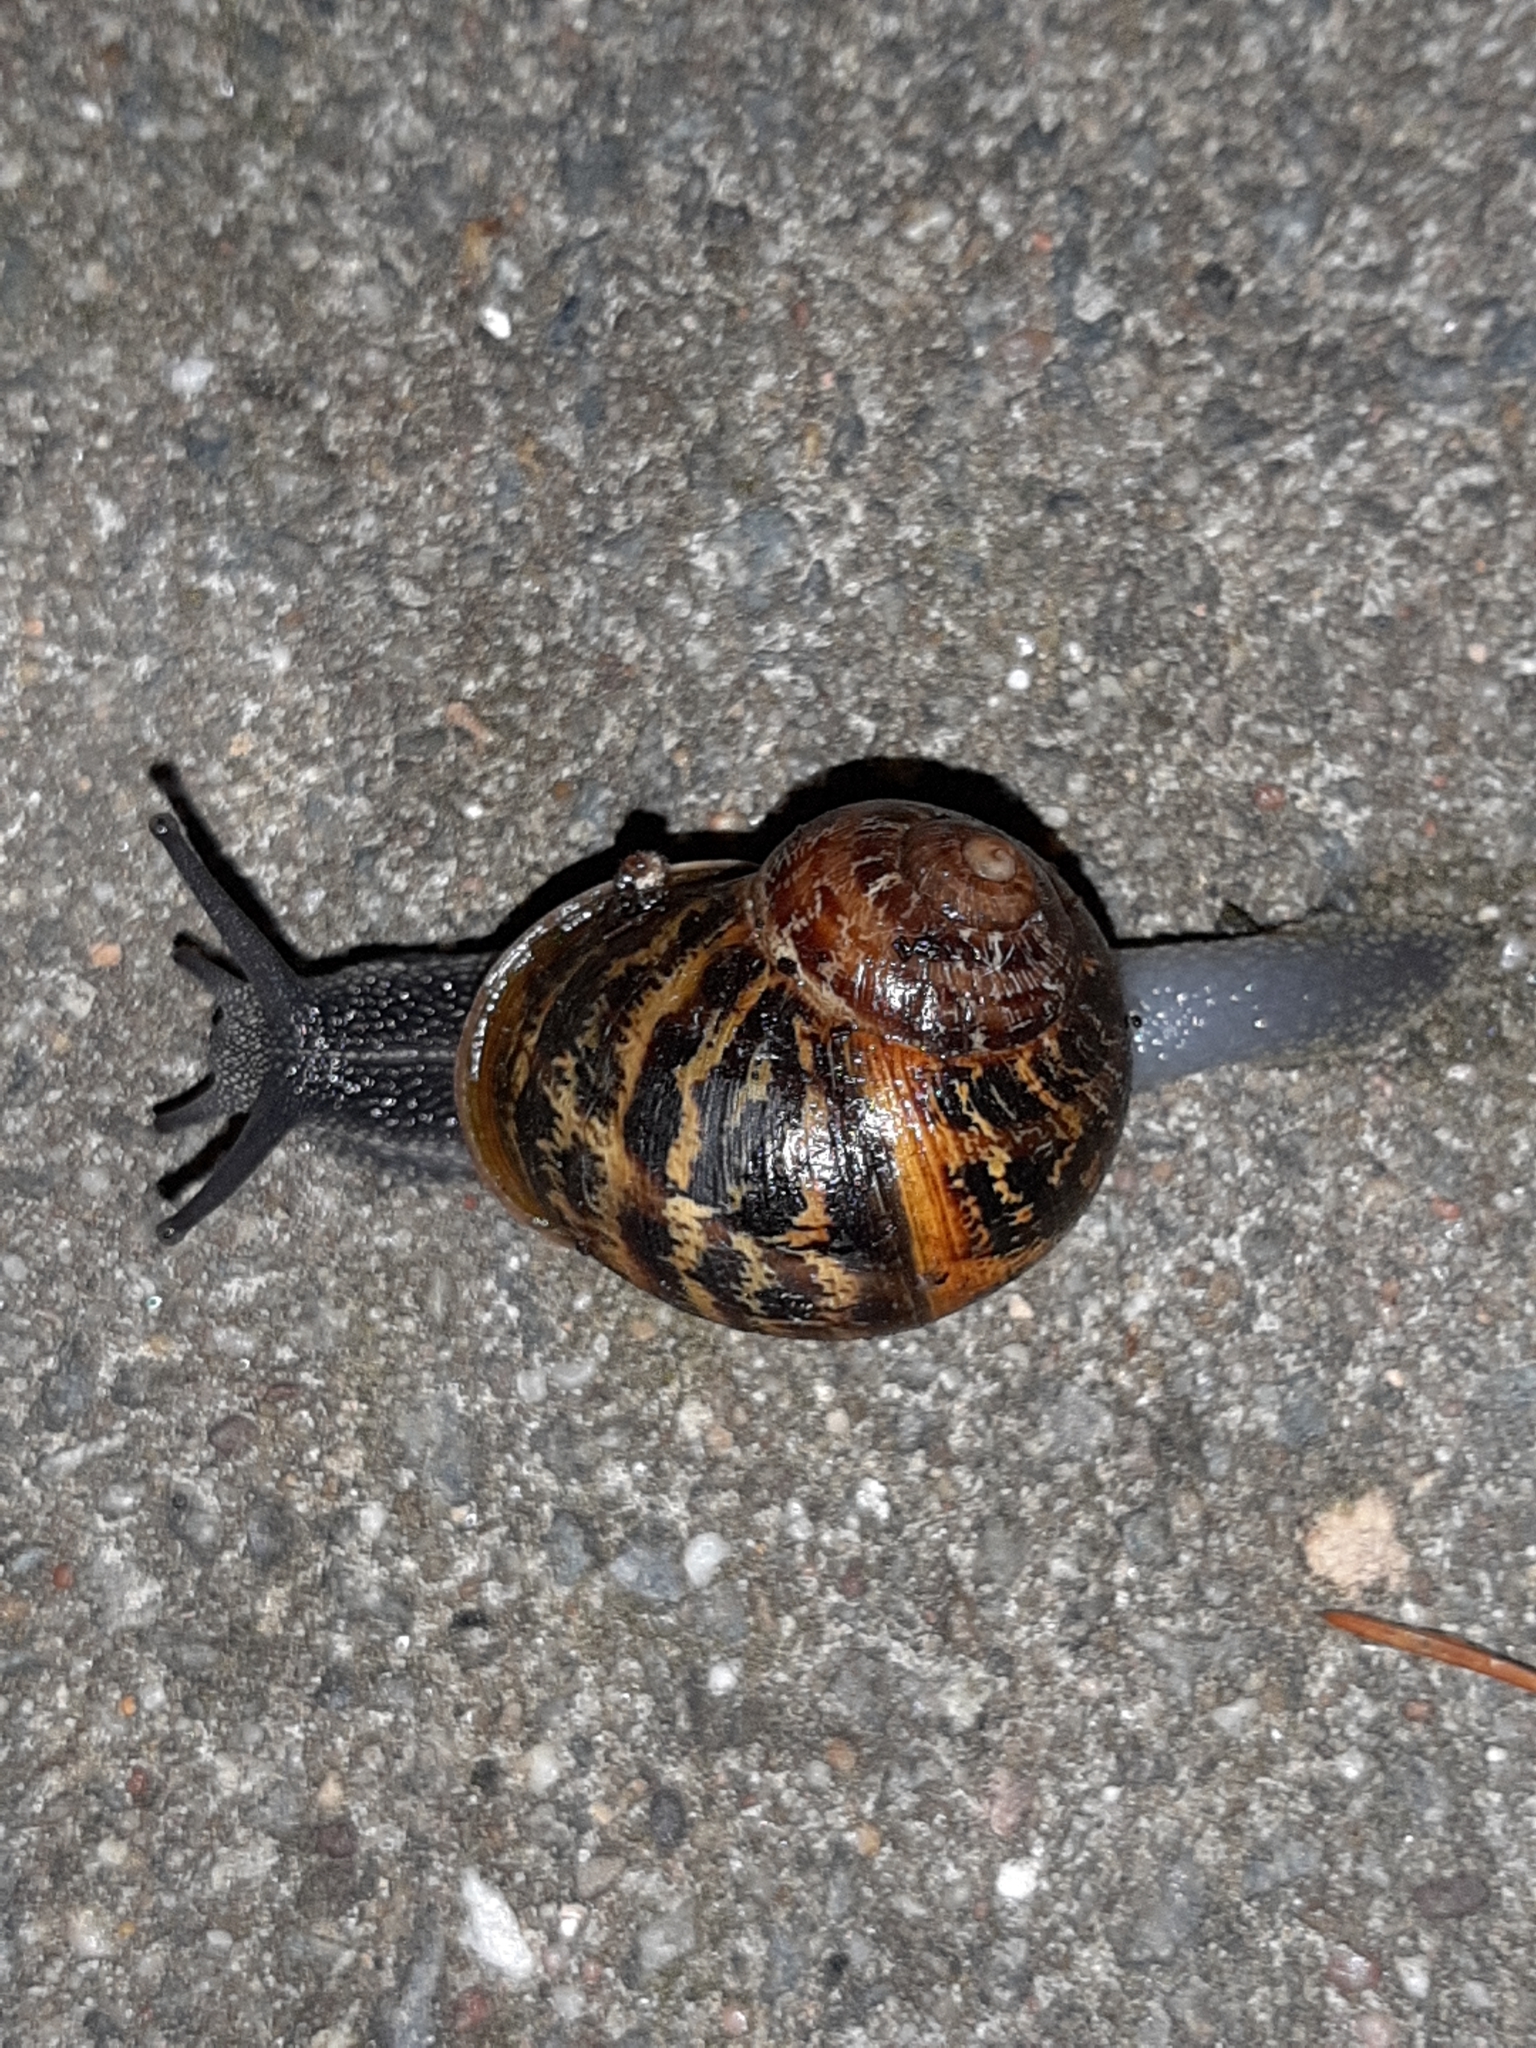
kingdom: Animalia
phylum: Mollusca
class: Gastropoda
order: Stylommatophora
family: Helicidae
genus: Cornu
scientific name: Cornu aspersum
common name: Brown garden snail
